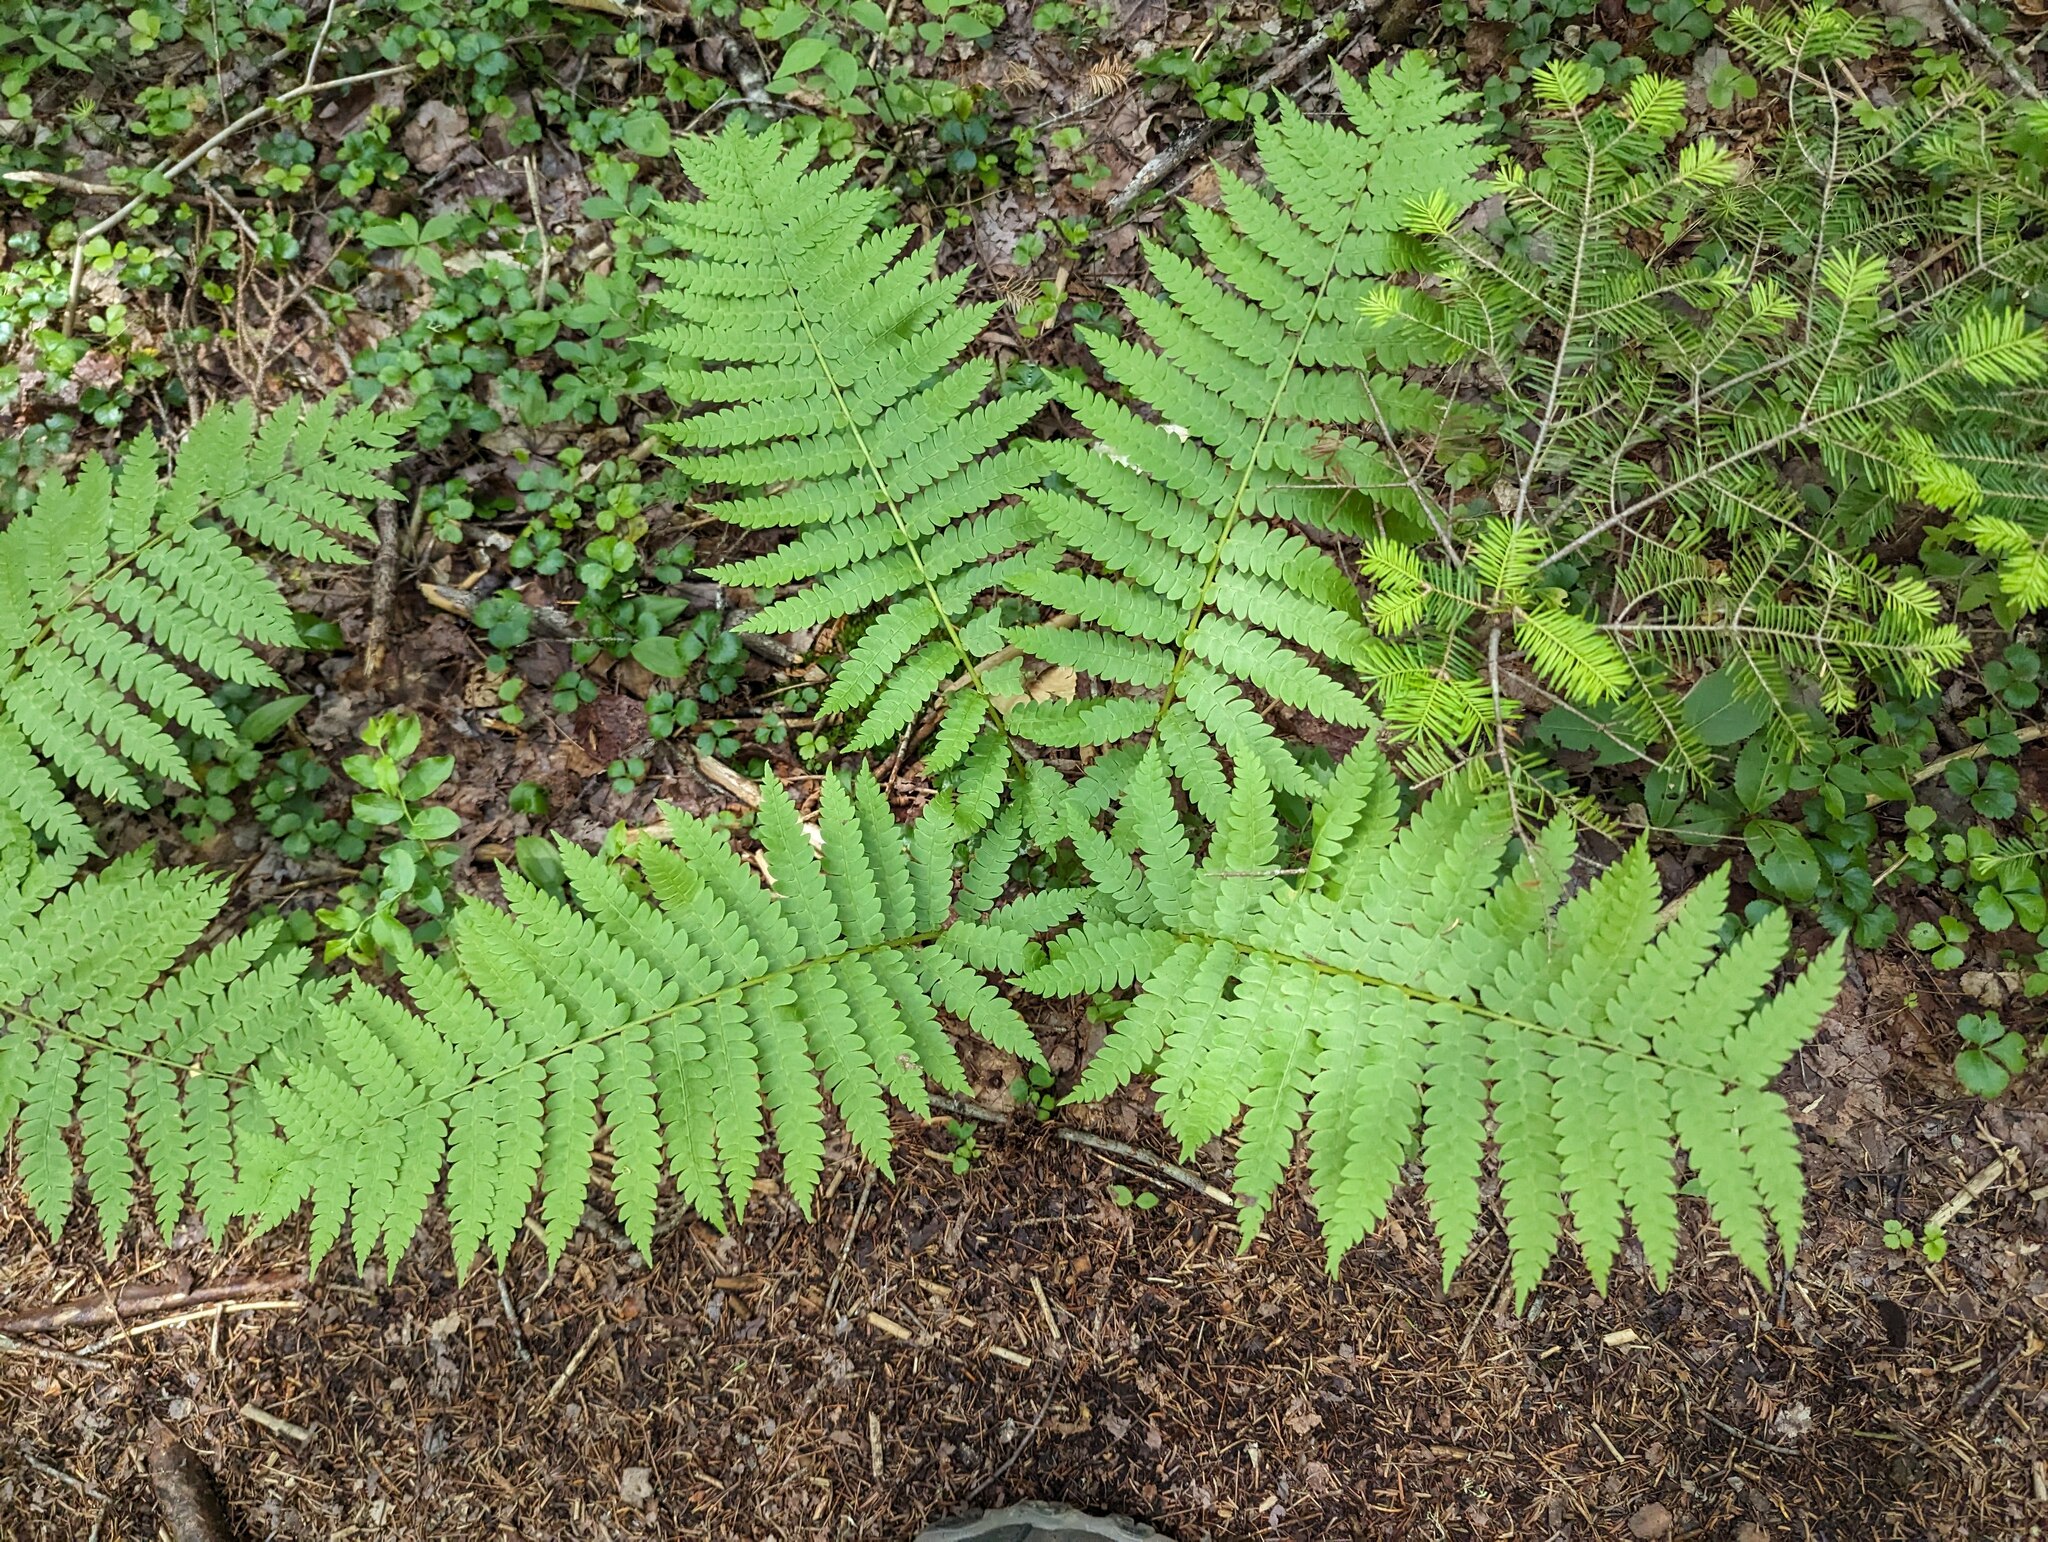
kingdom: Plantae
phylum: Tracheophyta
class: Polypodiopsida
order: Osmundales
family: Osmundaceae
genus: Osmundastrum
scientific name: Osmundastrum cinnamomeum
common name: Cinnamon fern
